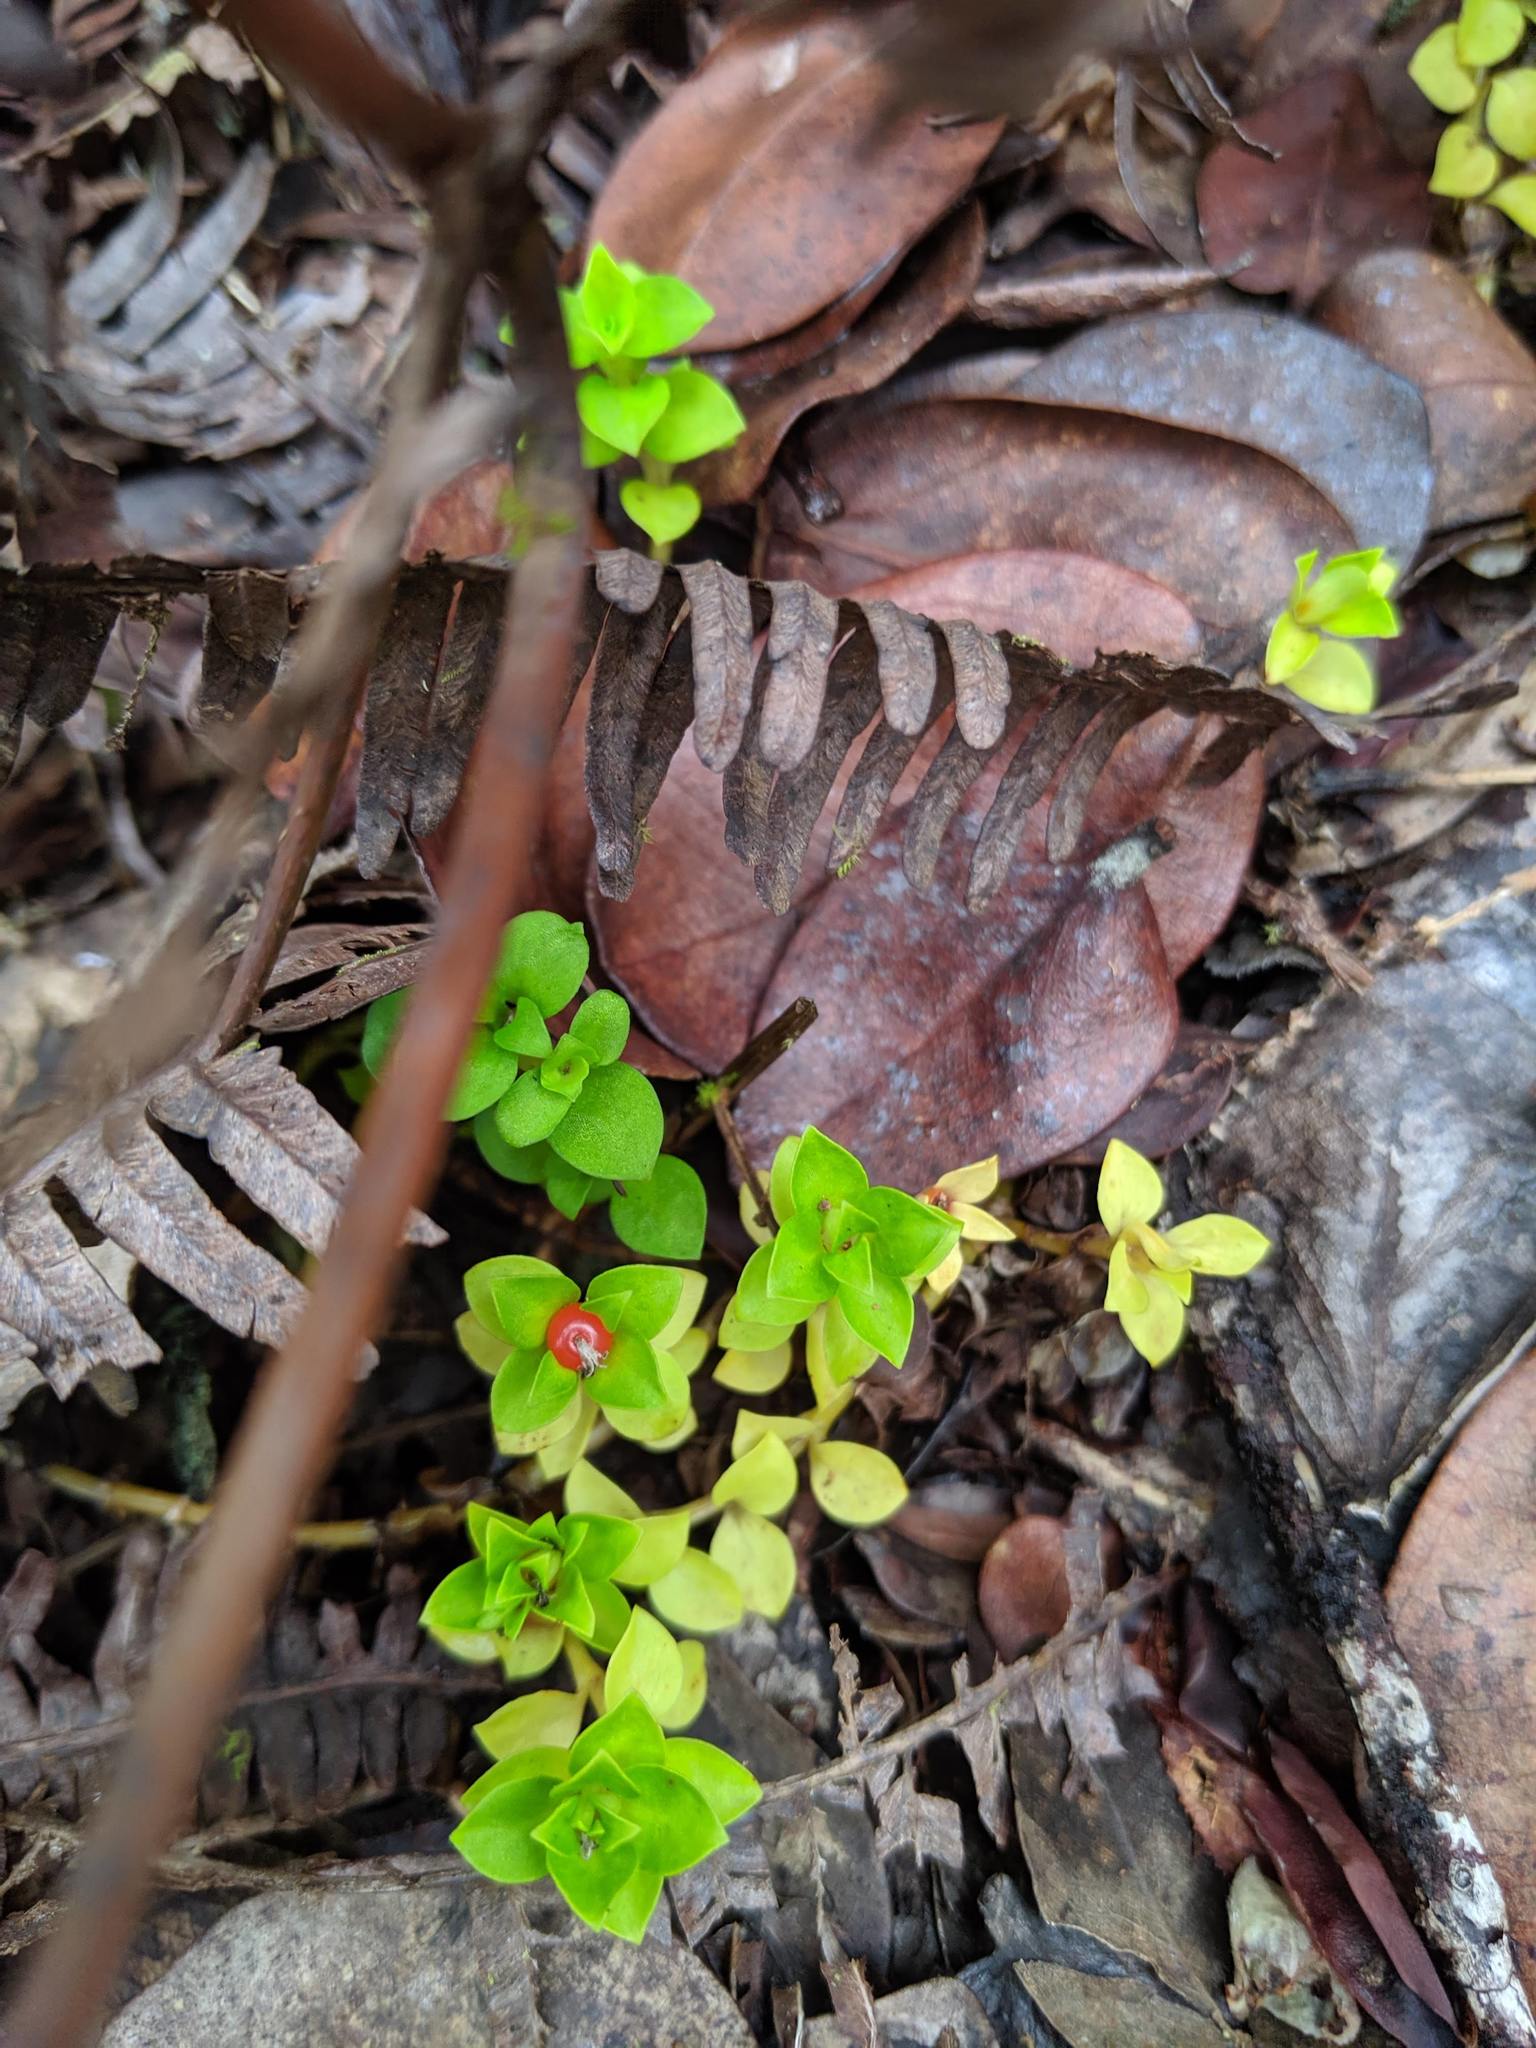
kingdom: Plantae
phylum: Tracheophyta
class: Magnoliopsida
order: Gentianales
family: Rubiaceae
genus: Nertera
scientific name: Nertera granadensis
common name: Beadplant
